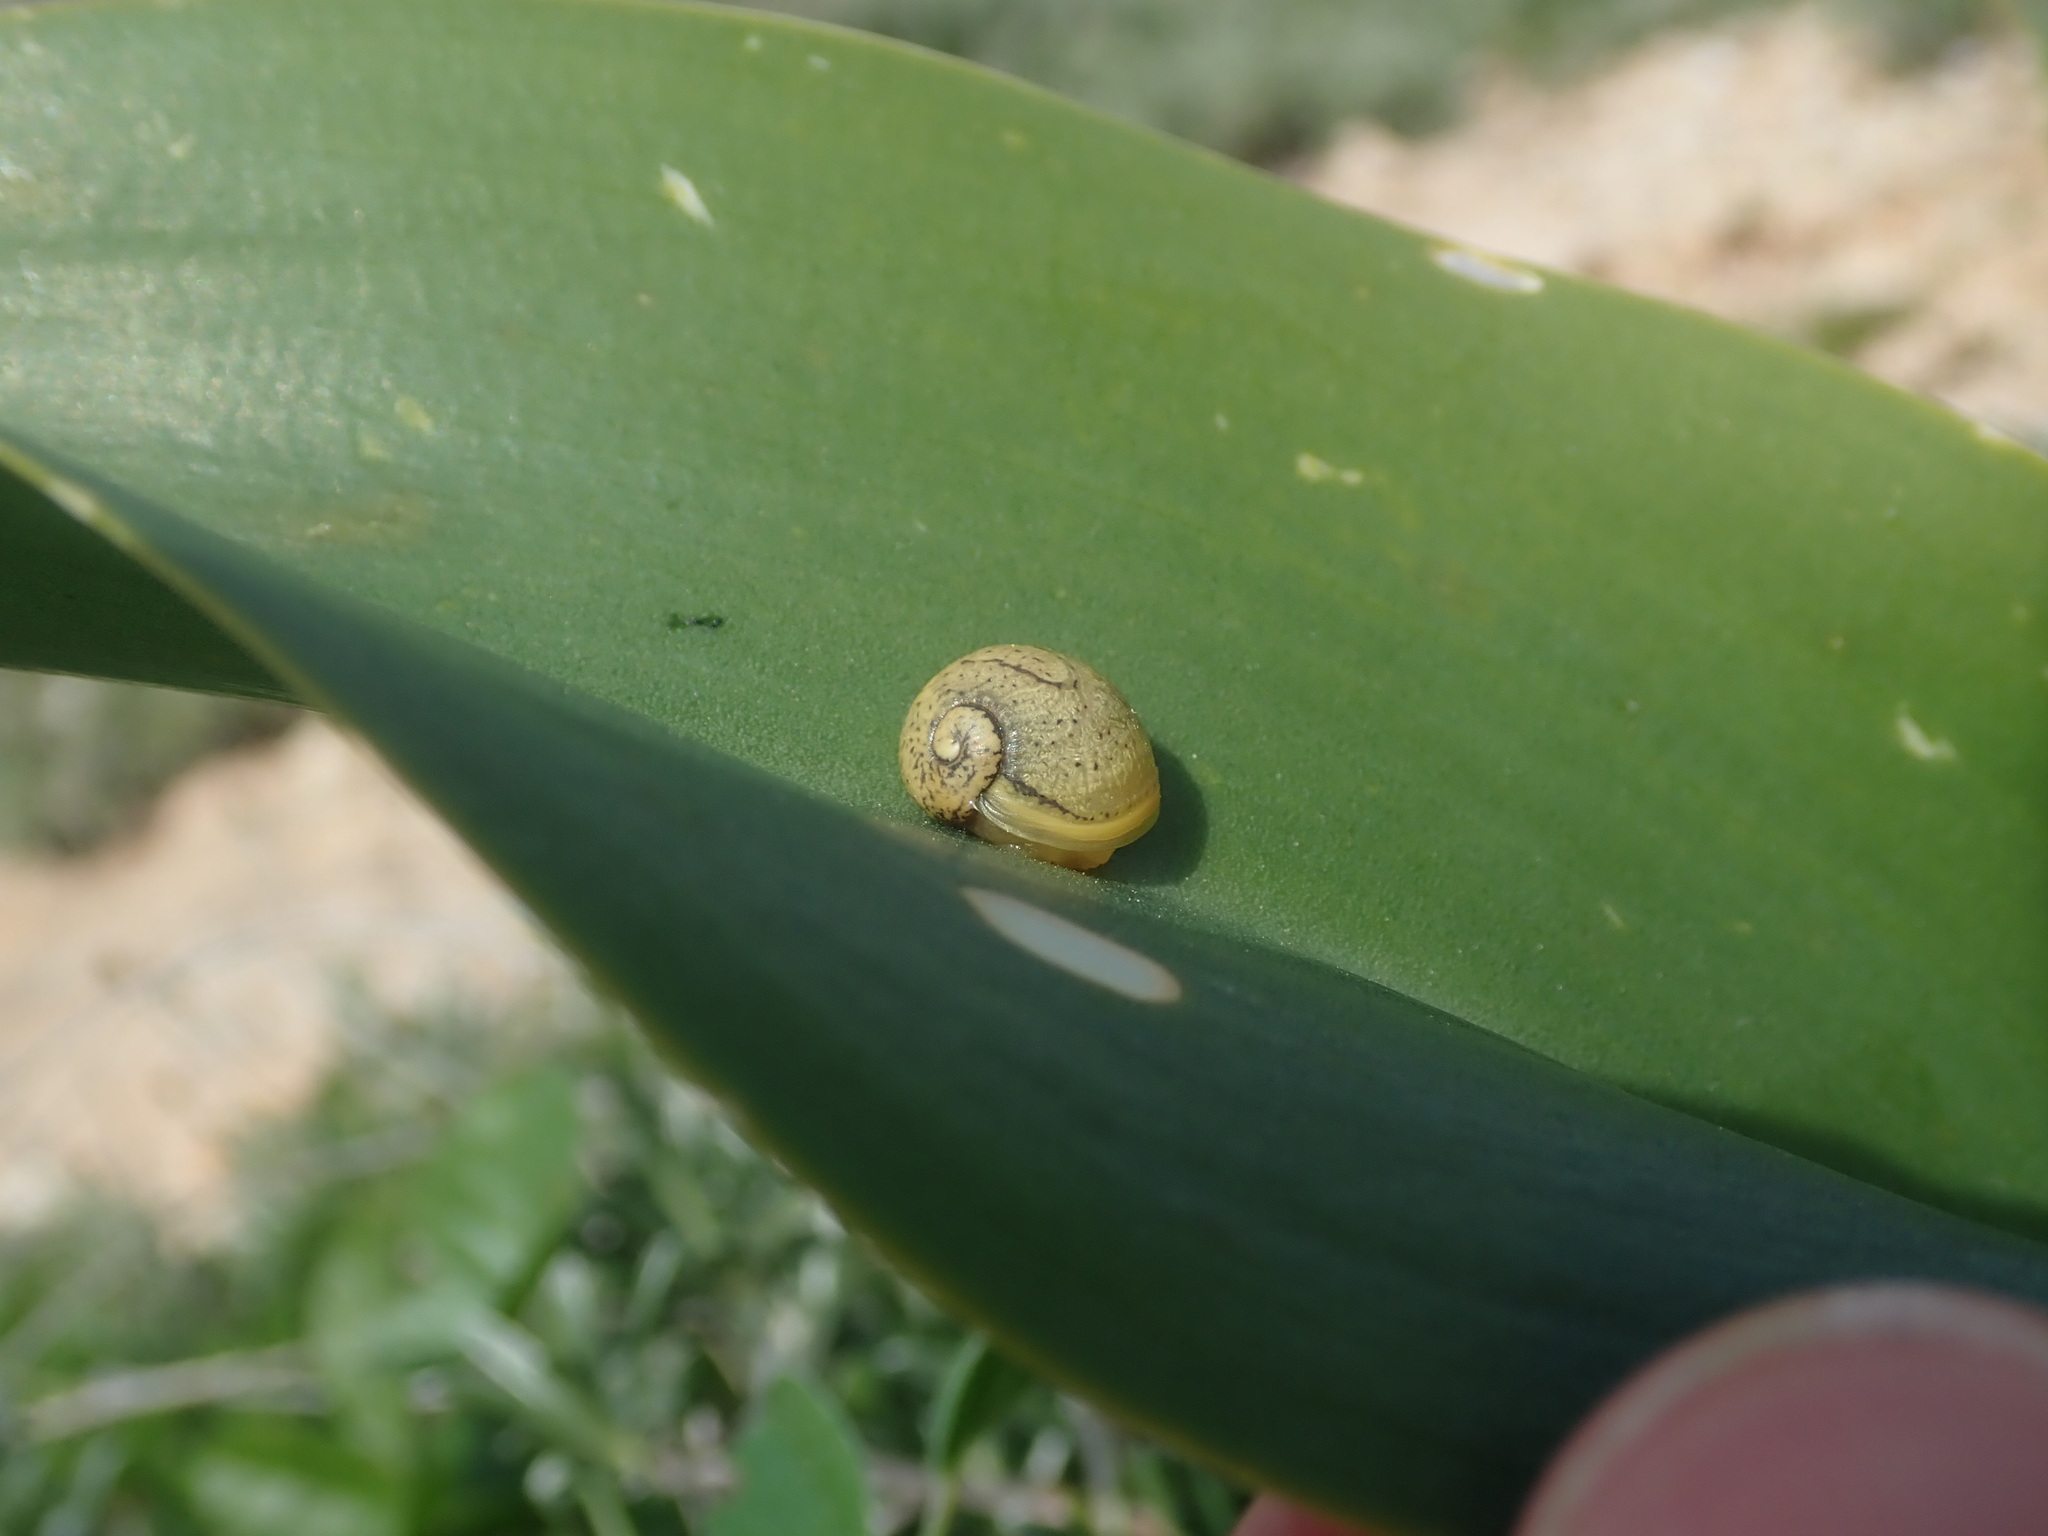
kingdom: Animalia
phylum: Mollusca
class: Gastropoda
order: Stylommatophora
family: Helicidae
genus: Cantareus
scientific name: Cantareus apertus
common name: Green gardensnail
